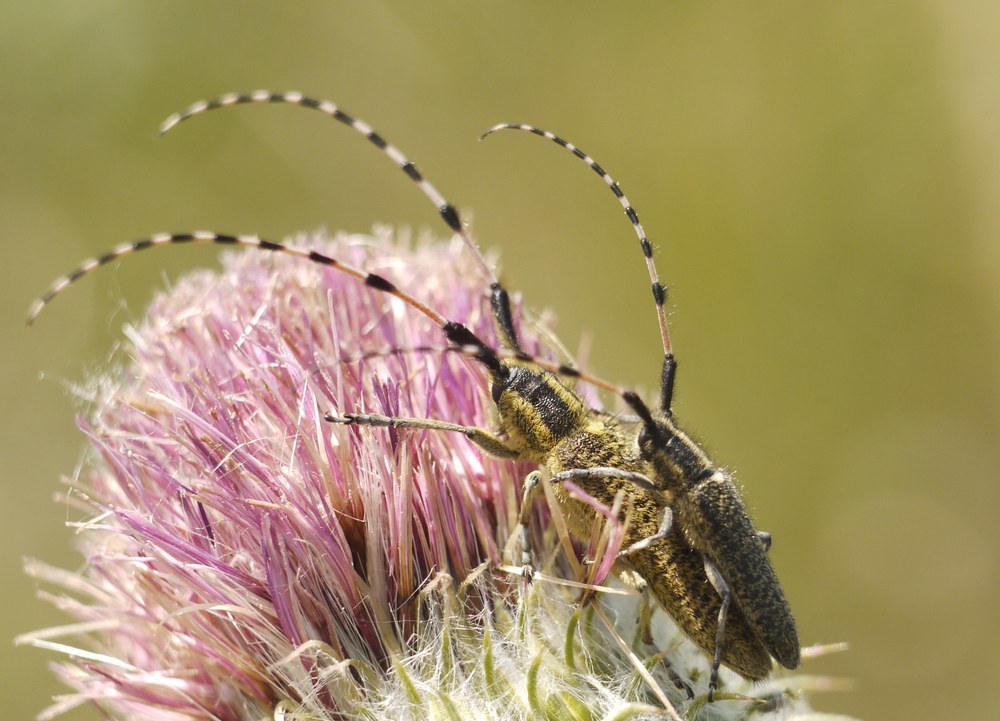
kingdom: Animalia
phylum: Arthropoda
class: Insecta
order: Coleoptera
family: Cerambycidae
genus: Agapanthia
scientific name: Agapanthia dahlii
